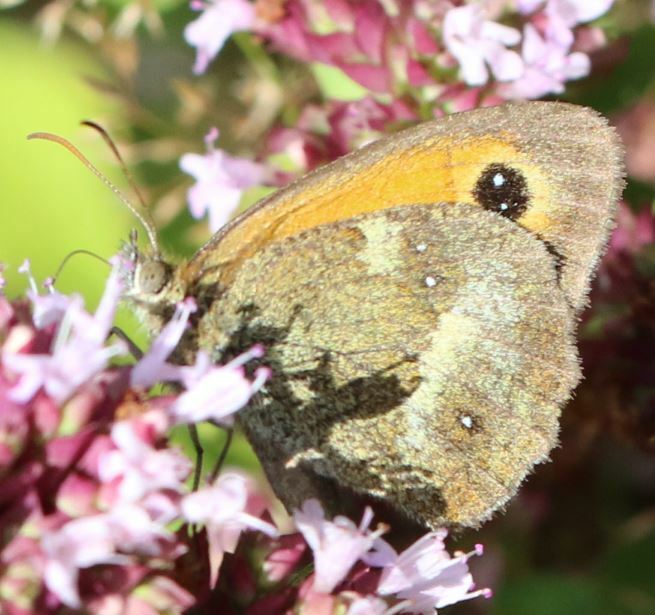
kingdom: Animalia
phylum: Arthropoda
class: Insecta
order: Lepidoptera
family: Nymphalidae
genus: Pyronia
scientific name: Pyronia tithonus
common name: Gatekeeper
